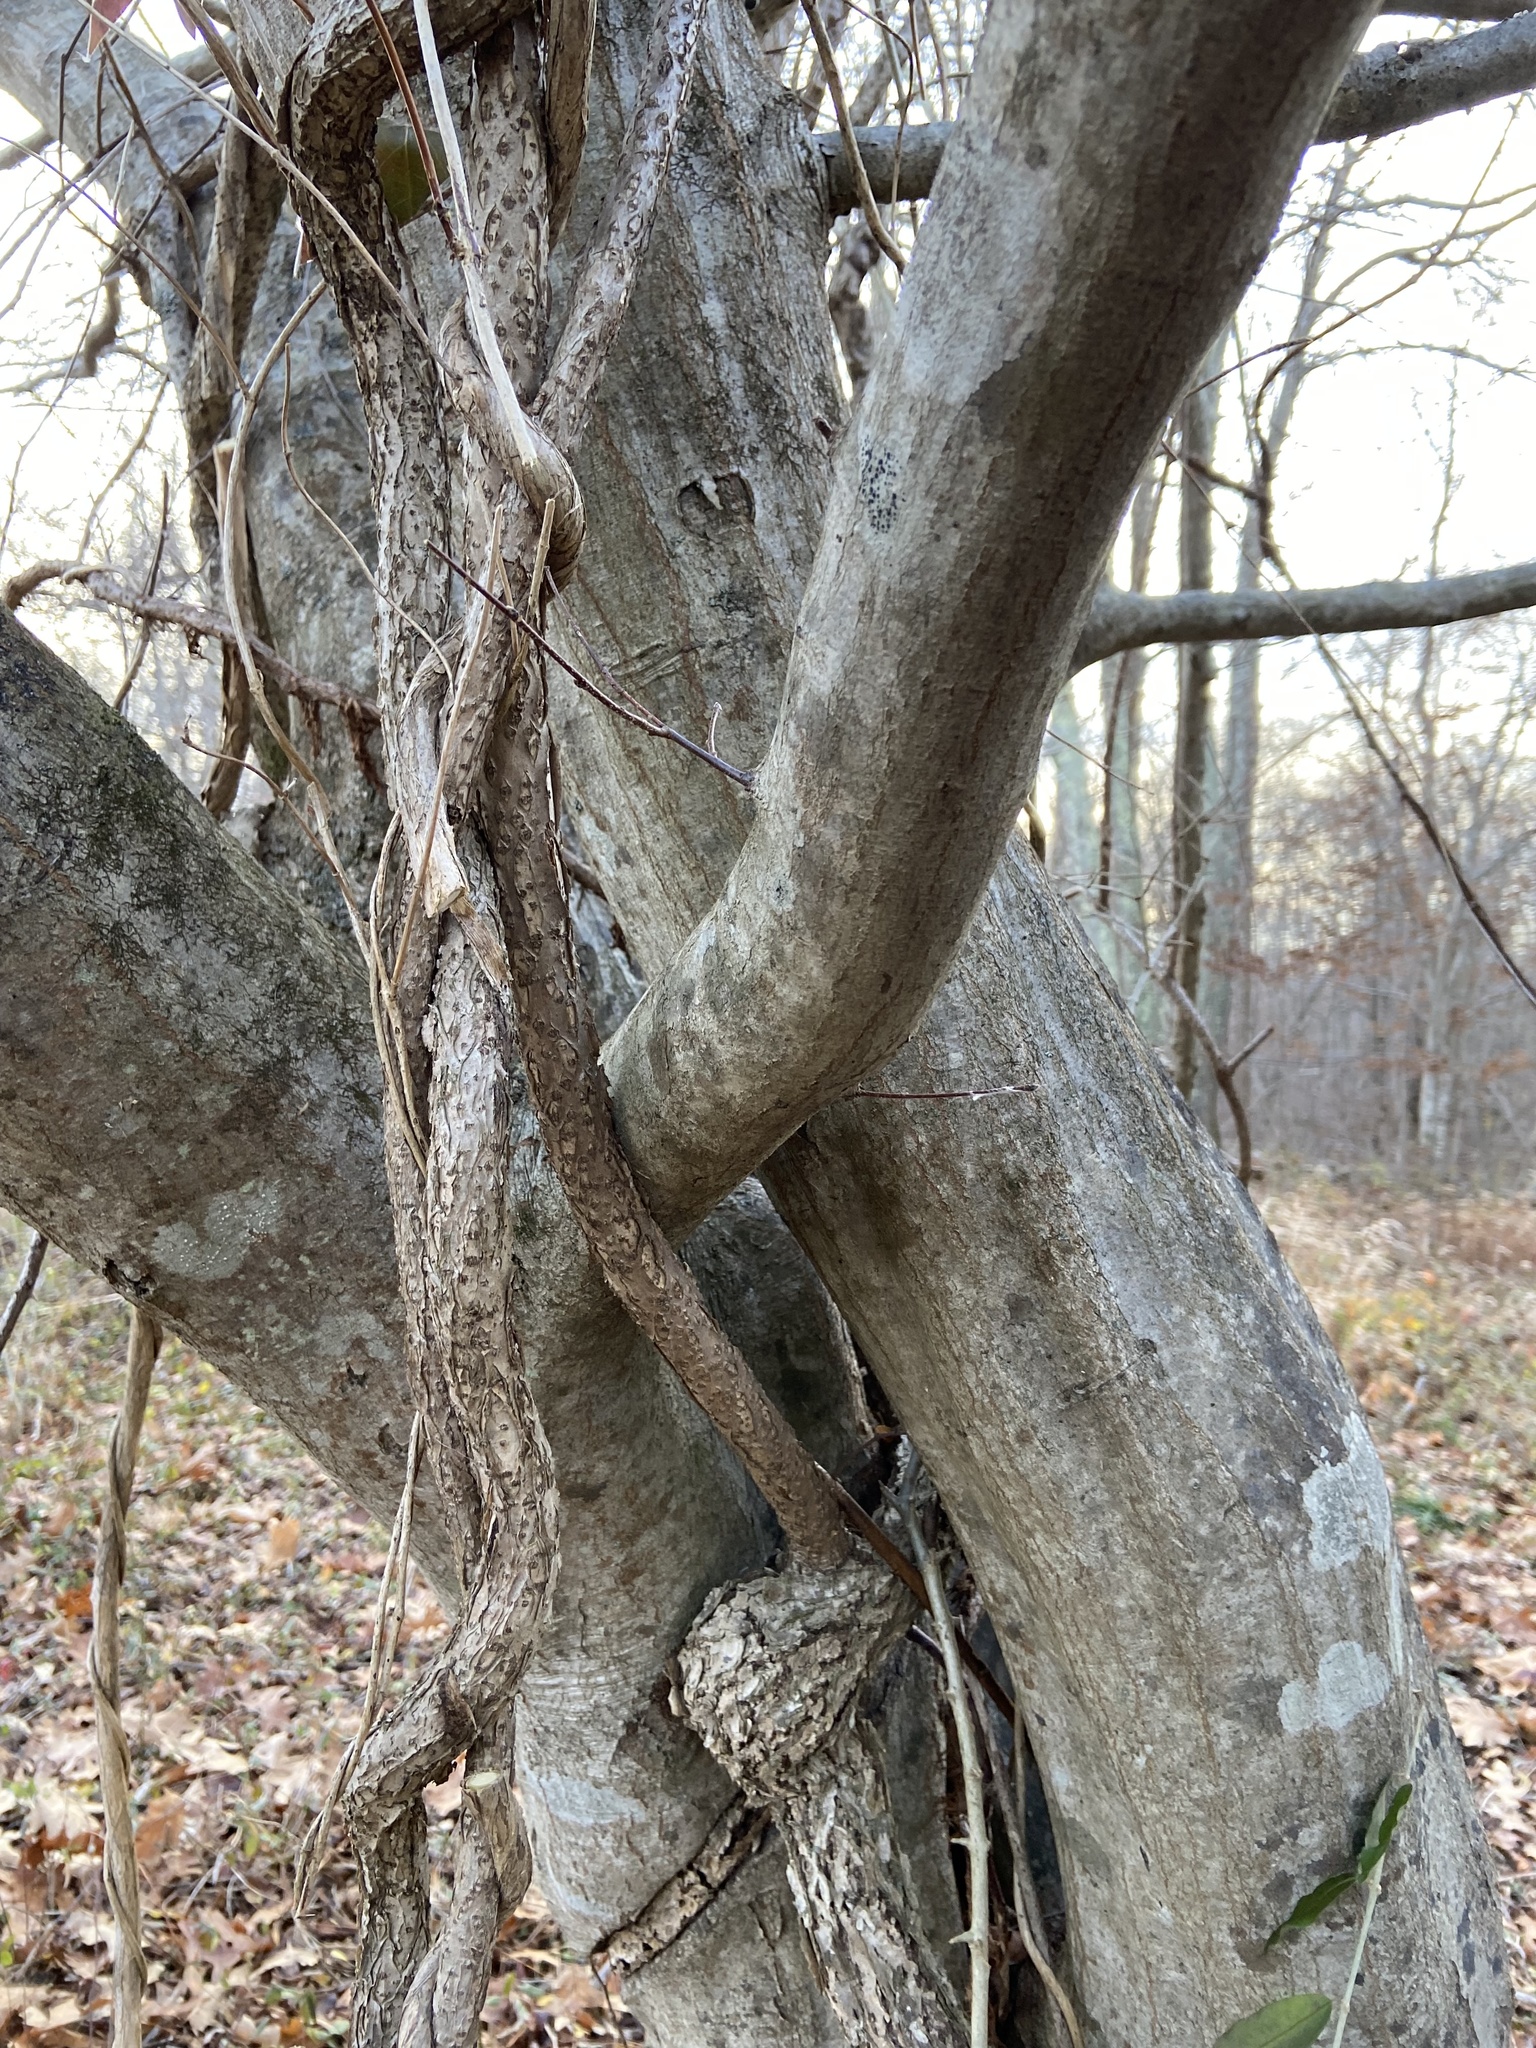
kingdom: Plantae
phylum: Tracheophyta
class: Magnoliopsida
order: Fagales
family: Betulaceae
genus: Carpinus
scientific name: Carpinus caroliniana
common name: American hornbeam
